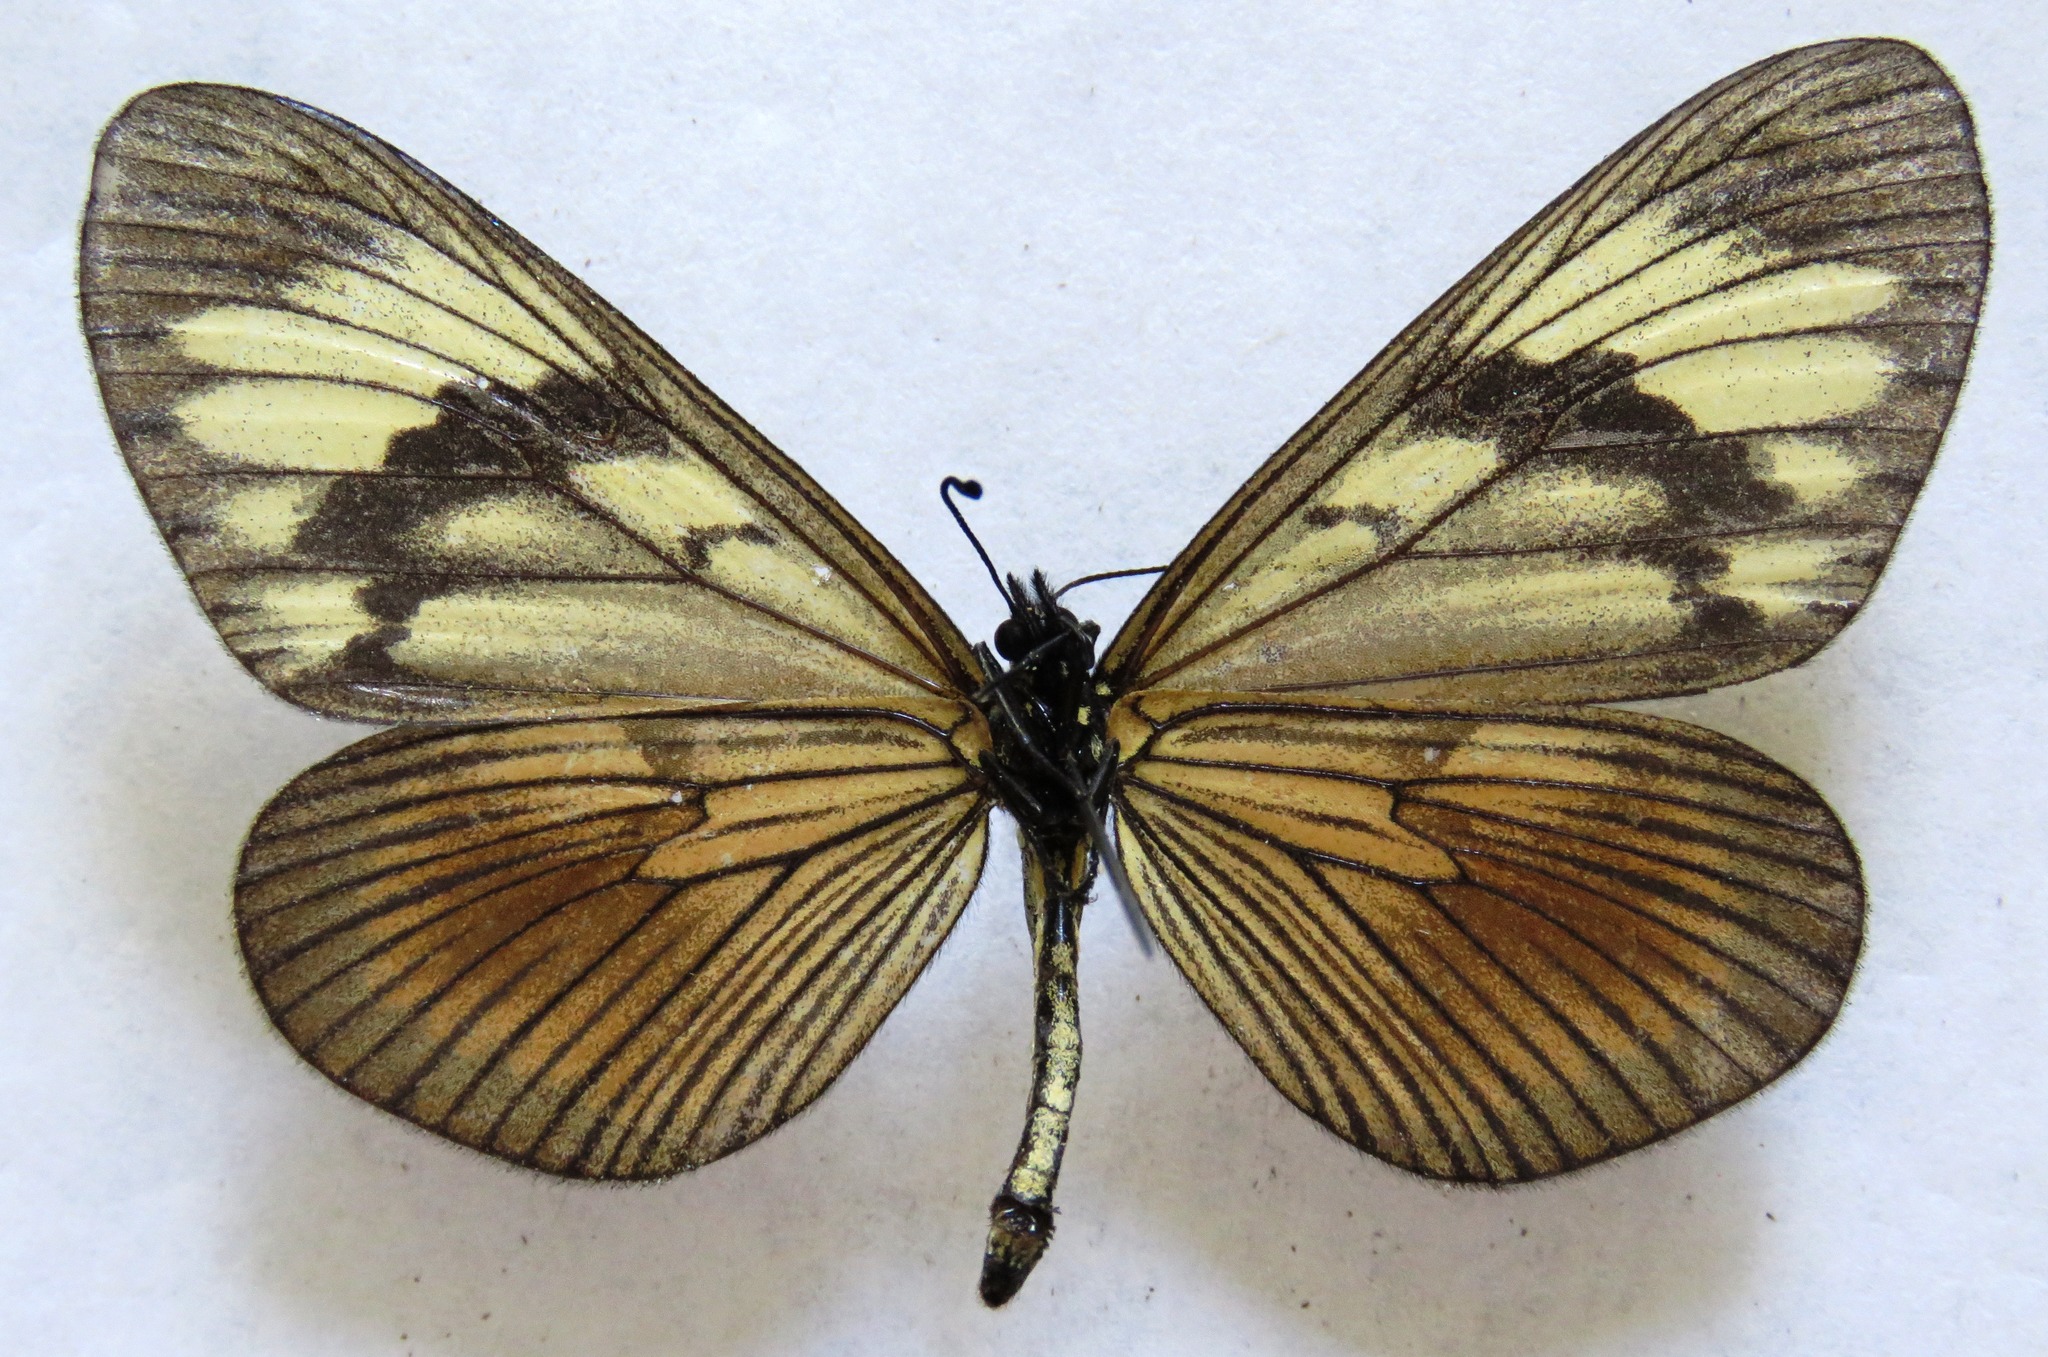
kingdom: Animalia
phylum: Arthropoda
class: Insecta
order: Lepidoptera
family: Nymphalidae
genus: Actinote
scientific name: Actinote anteas
